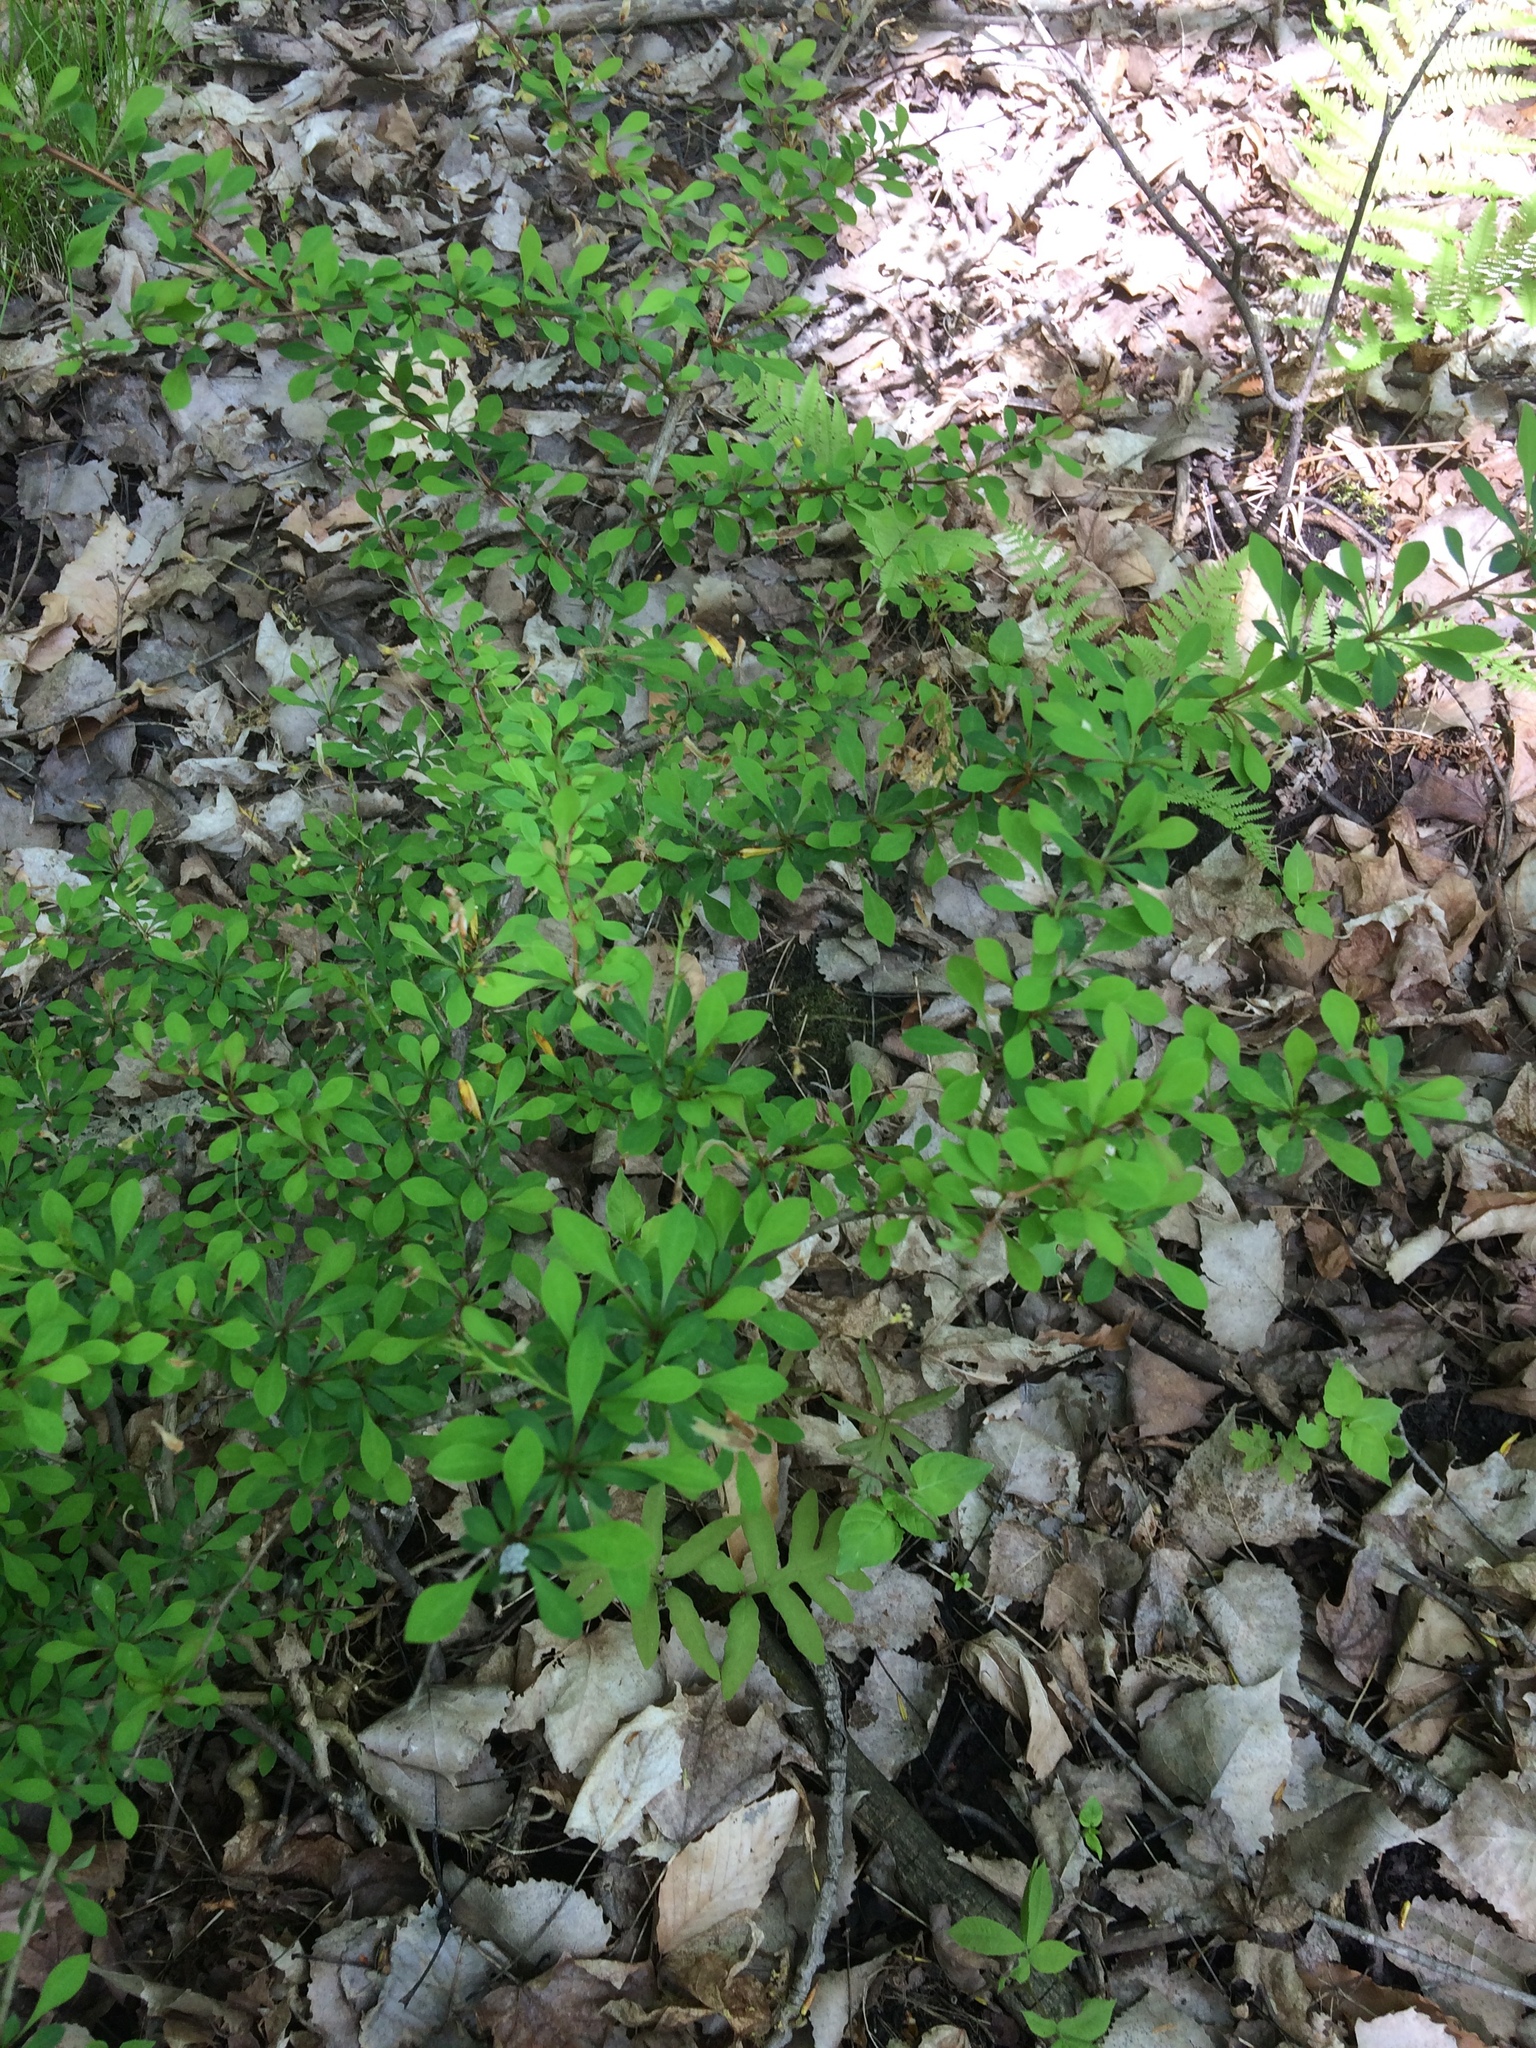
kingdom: Plantae
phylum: Tracheophyta
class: Magnoliopsida
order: Ranunculales
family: Berberidaceae
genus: Berberis
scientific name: Berberis thunbergii
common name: Japanese barberry
